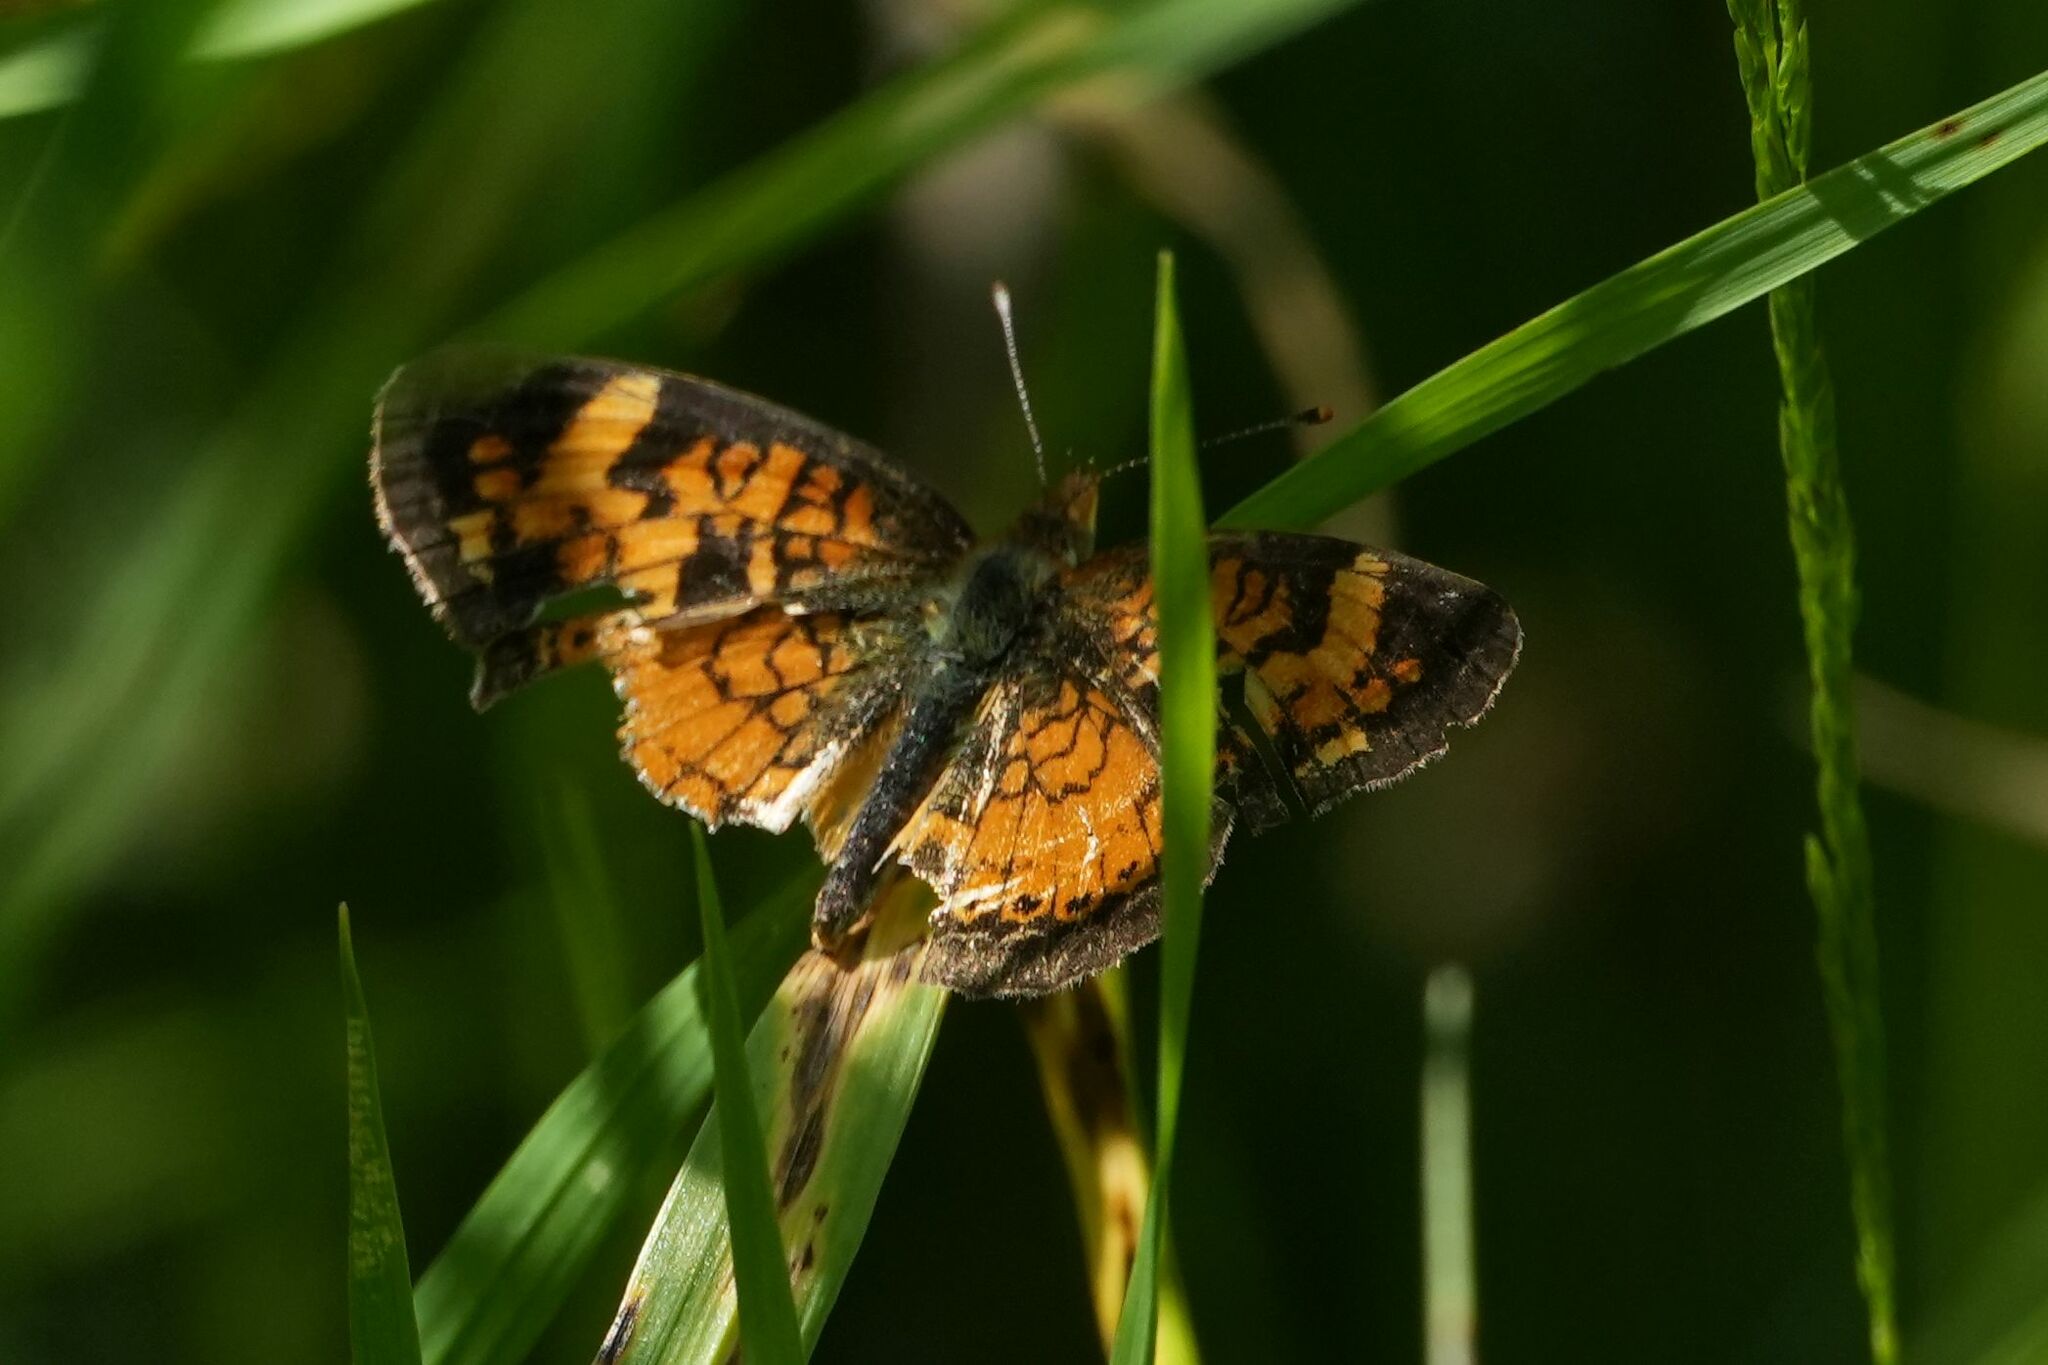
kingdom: Animalia
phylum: Arthropoda
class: Insecta
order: Lepidoptera
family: Nymphalidae
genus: Phyciodes
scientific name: Phyciodes tharos
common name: Pearl crescent
